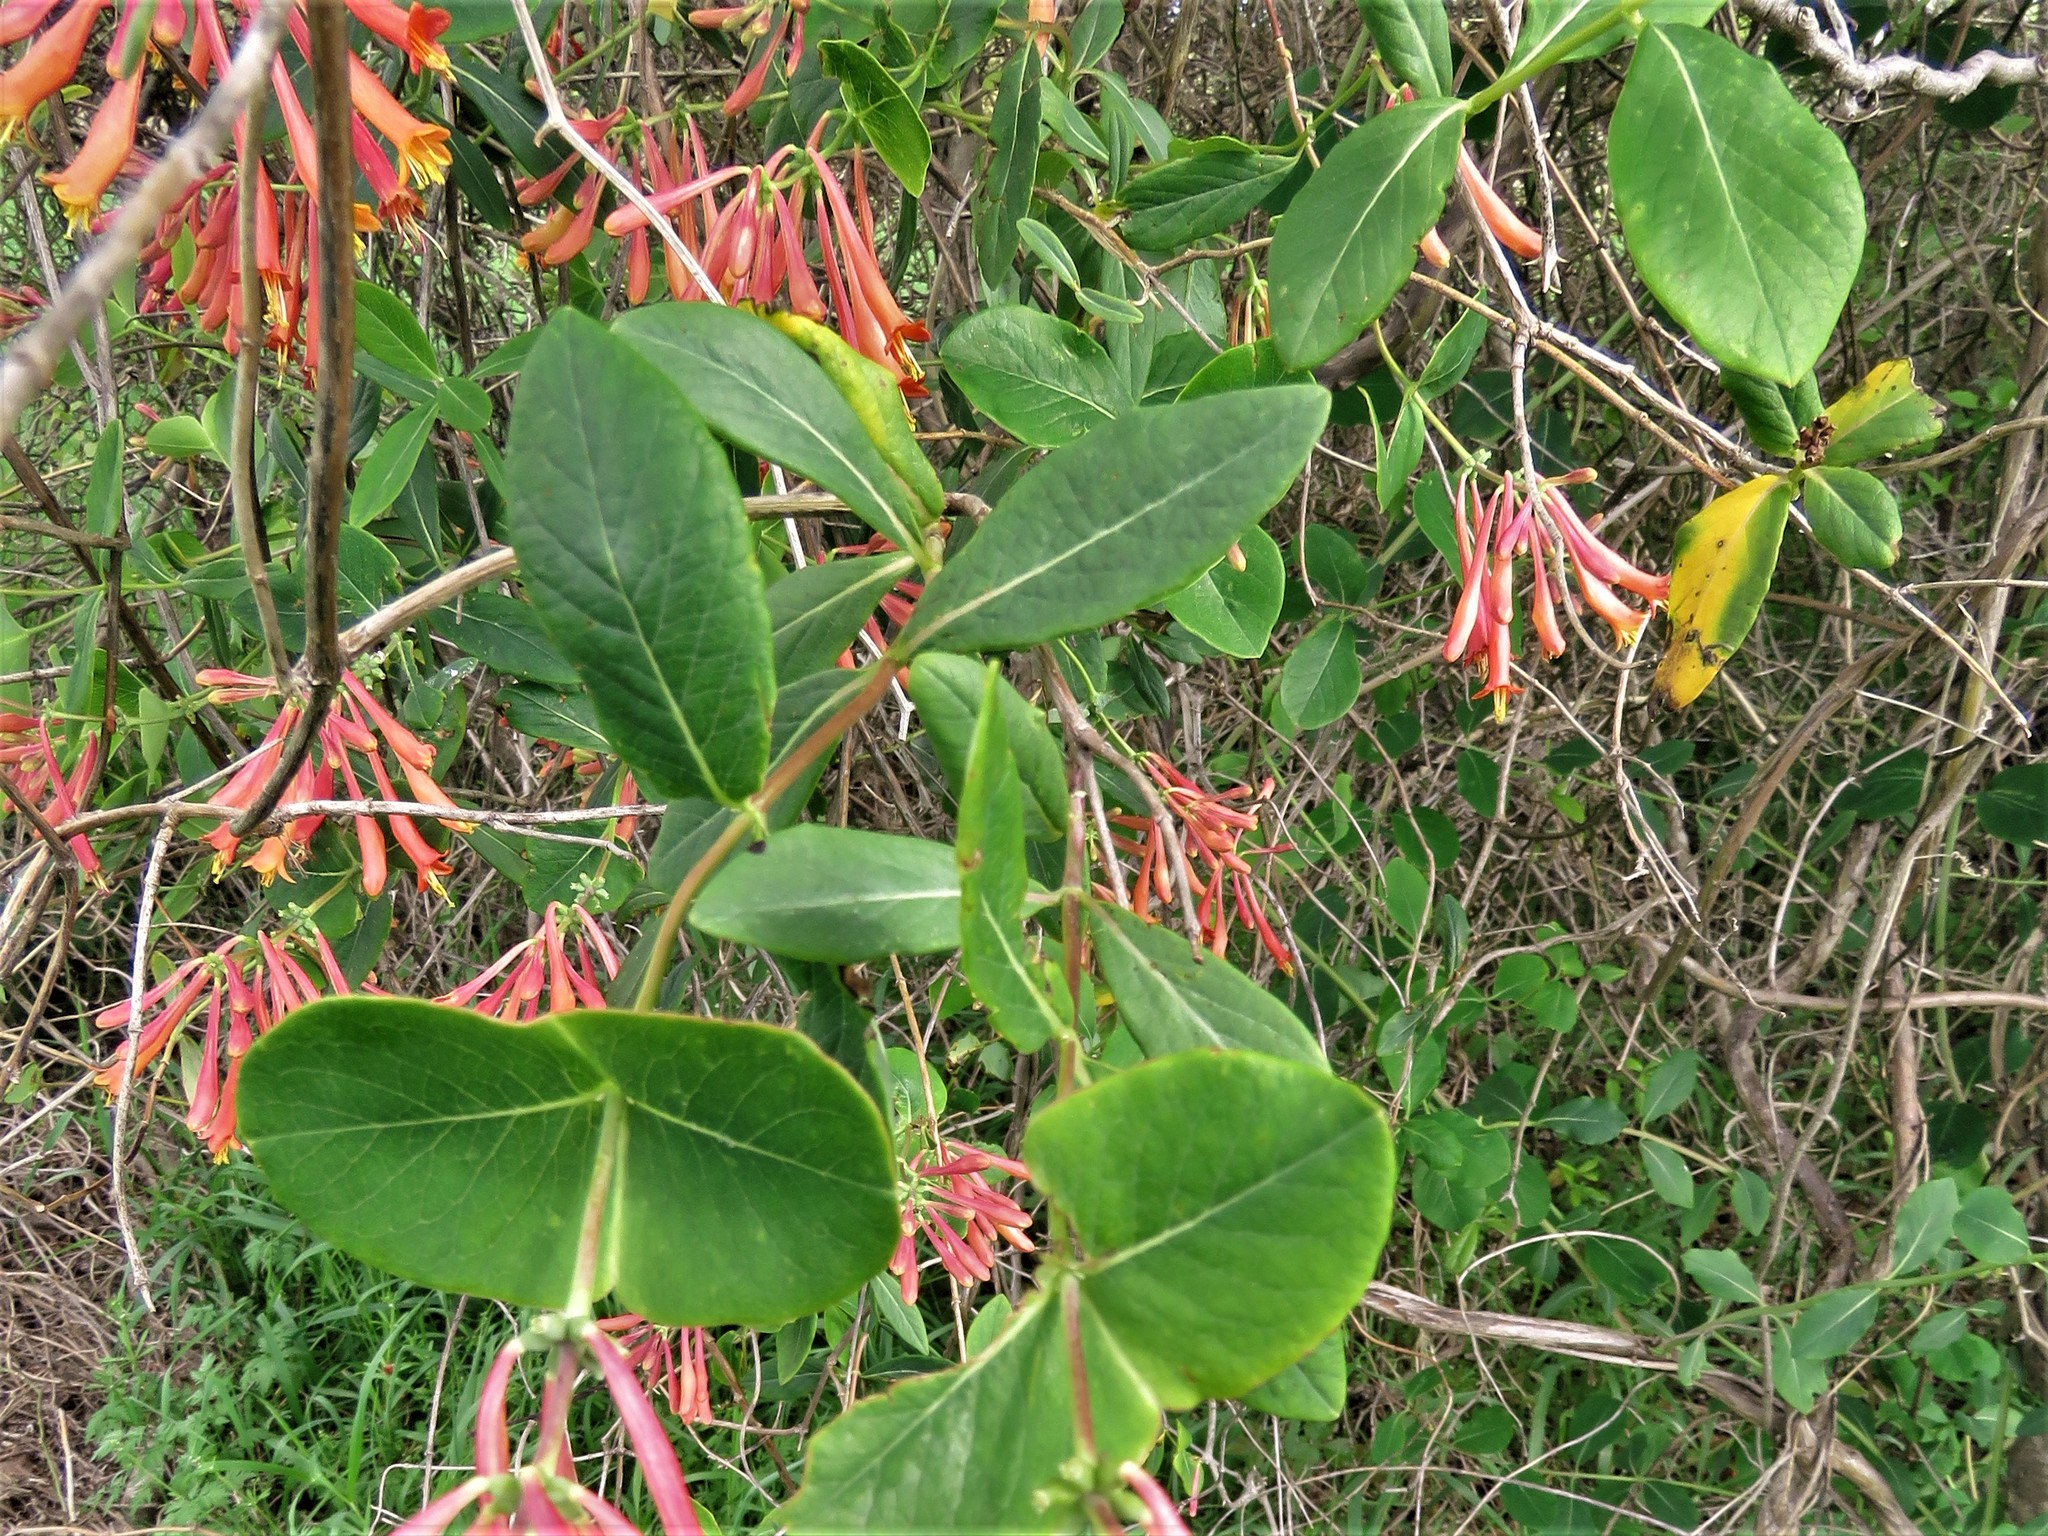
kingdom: Plantae
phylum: Tracheophyta
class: Magnoliopsida
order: Dipsacales
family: Caprifoliaceae
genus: Lonicera
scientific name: Lonicera sempervirens
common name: Coral honeysuckle
